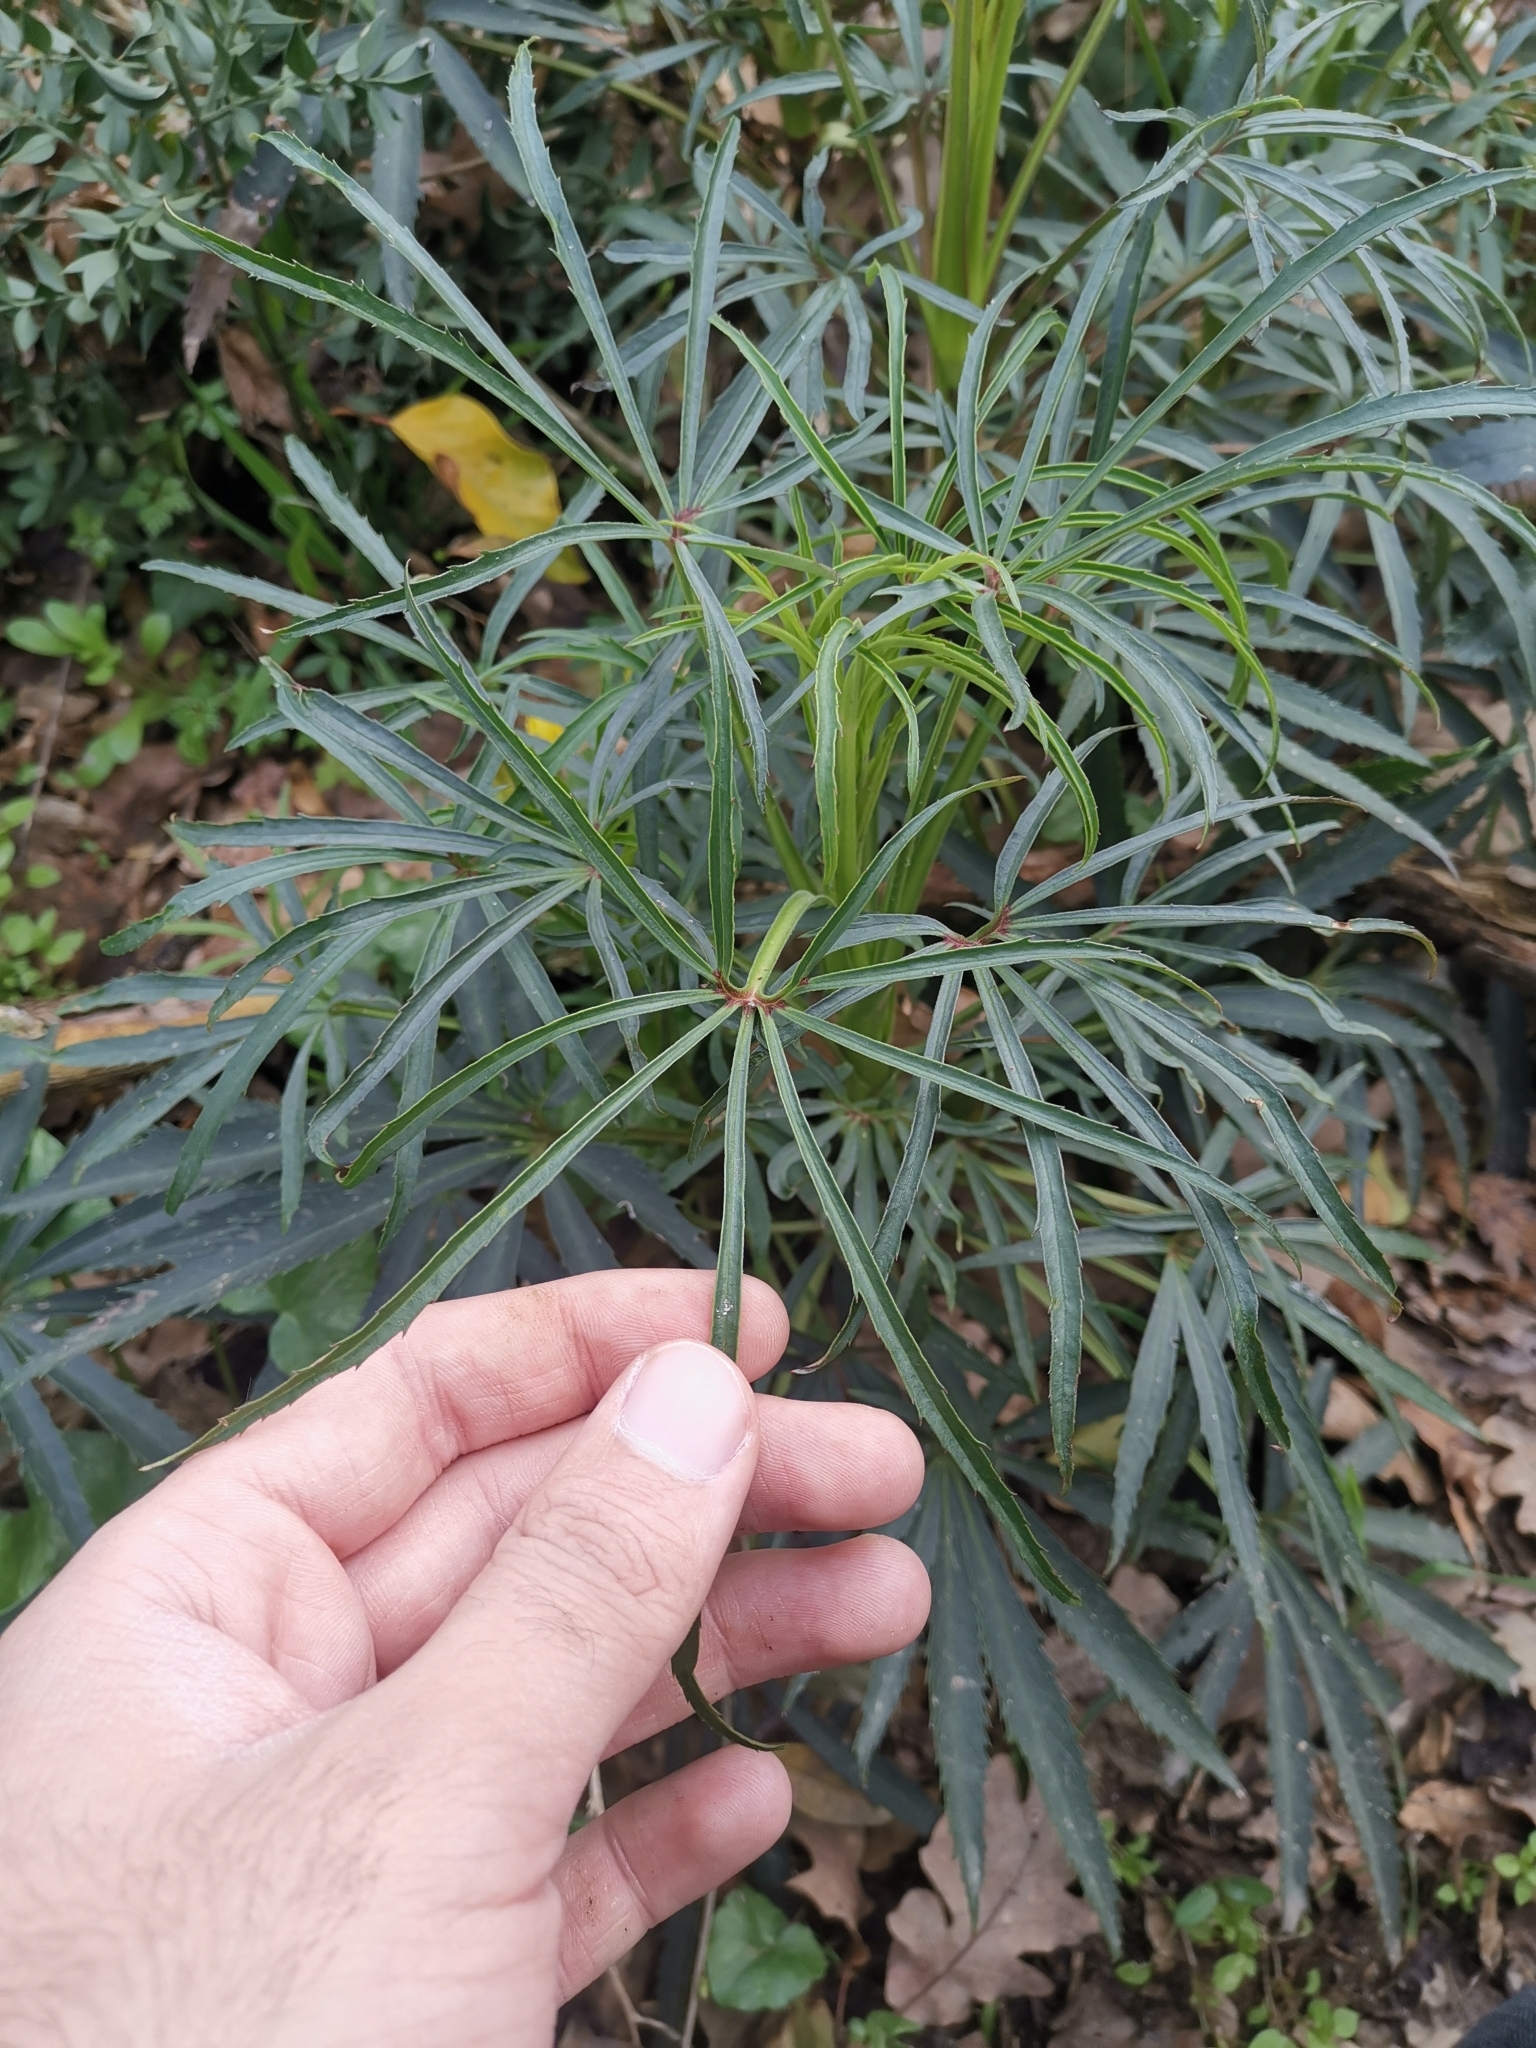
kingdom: Plantae
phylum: Tracheophyta
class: Magnoliopsida
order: Ranunculales
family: Ranunculaceae
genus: Helleborus
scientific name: Helleborus foetidus
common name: Stinking hellebore
